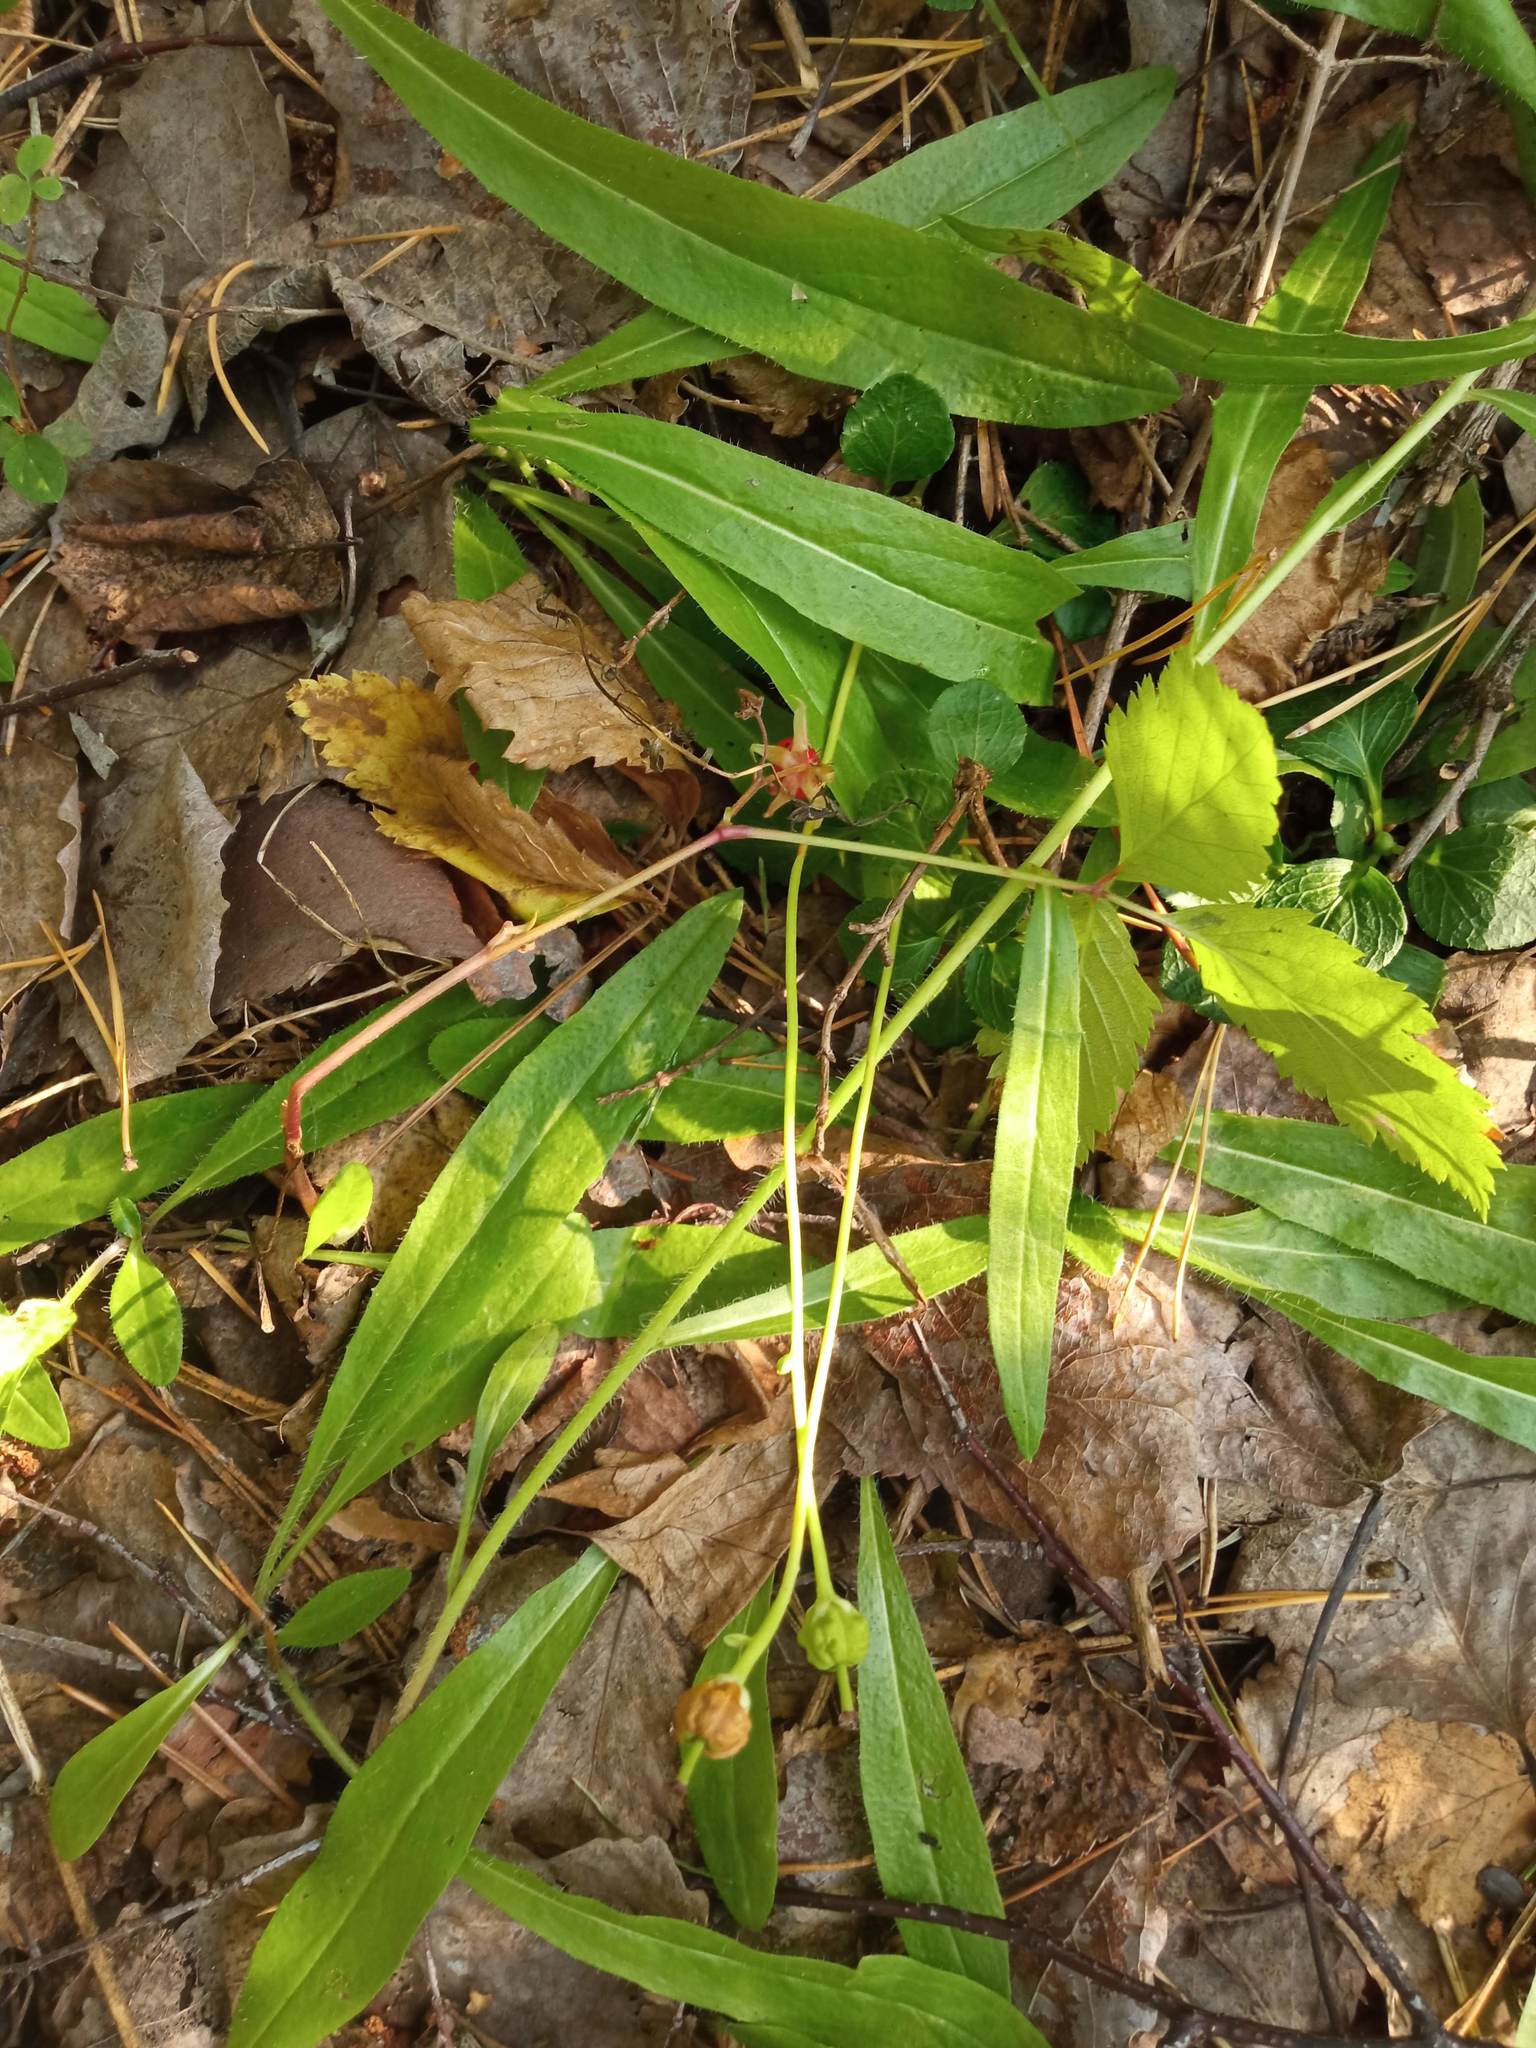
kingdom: Plantae
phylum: Tracheophyta
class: Magnoliopsida
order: Ericales
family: Ericaceae
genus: Moneses
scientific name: Moneses uniflora
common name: One-flowered wintergreen
